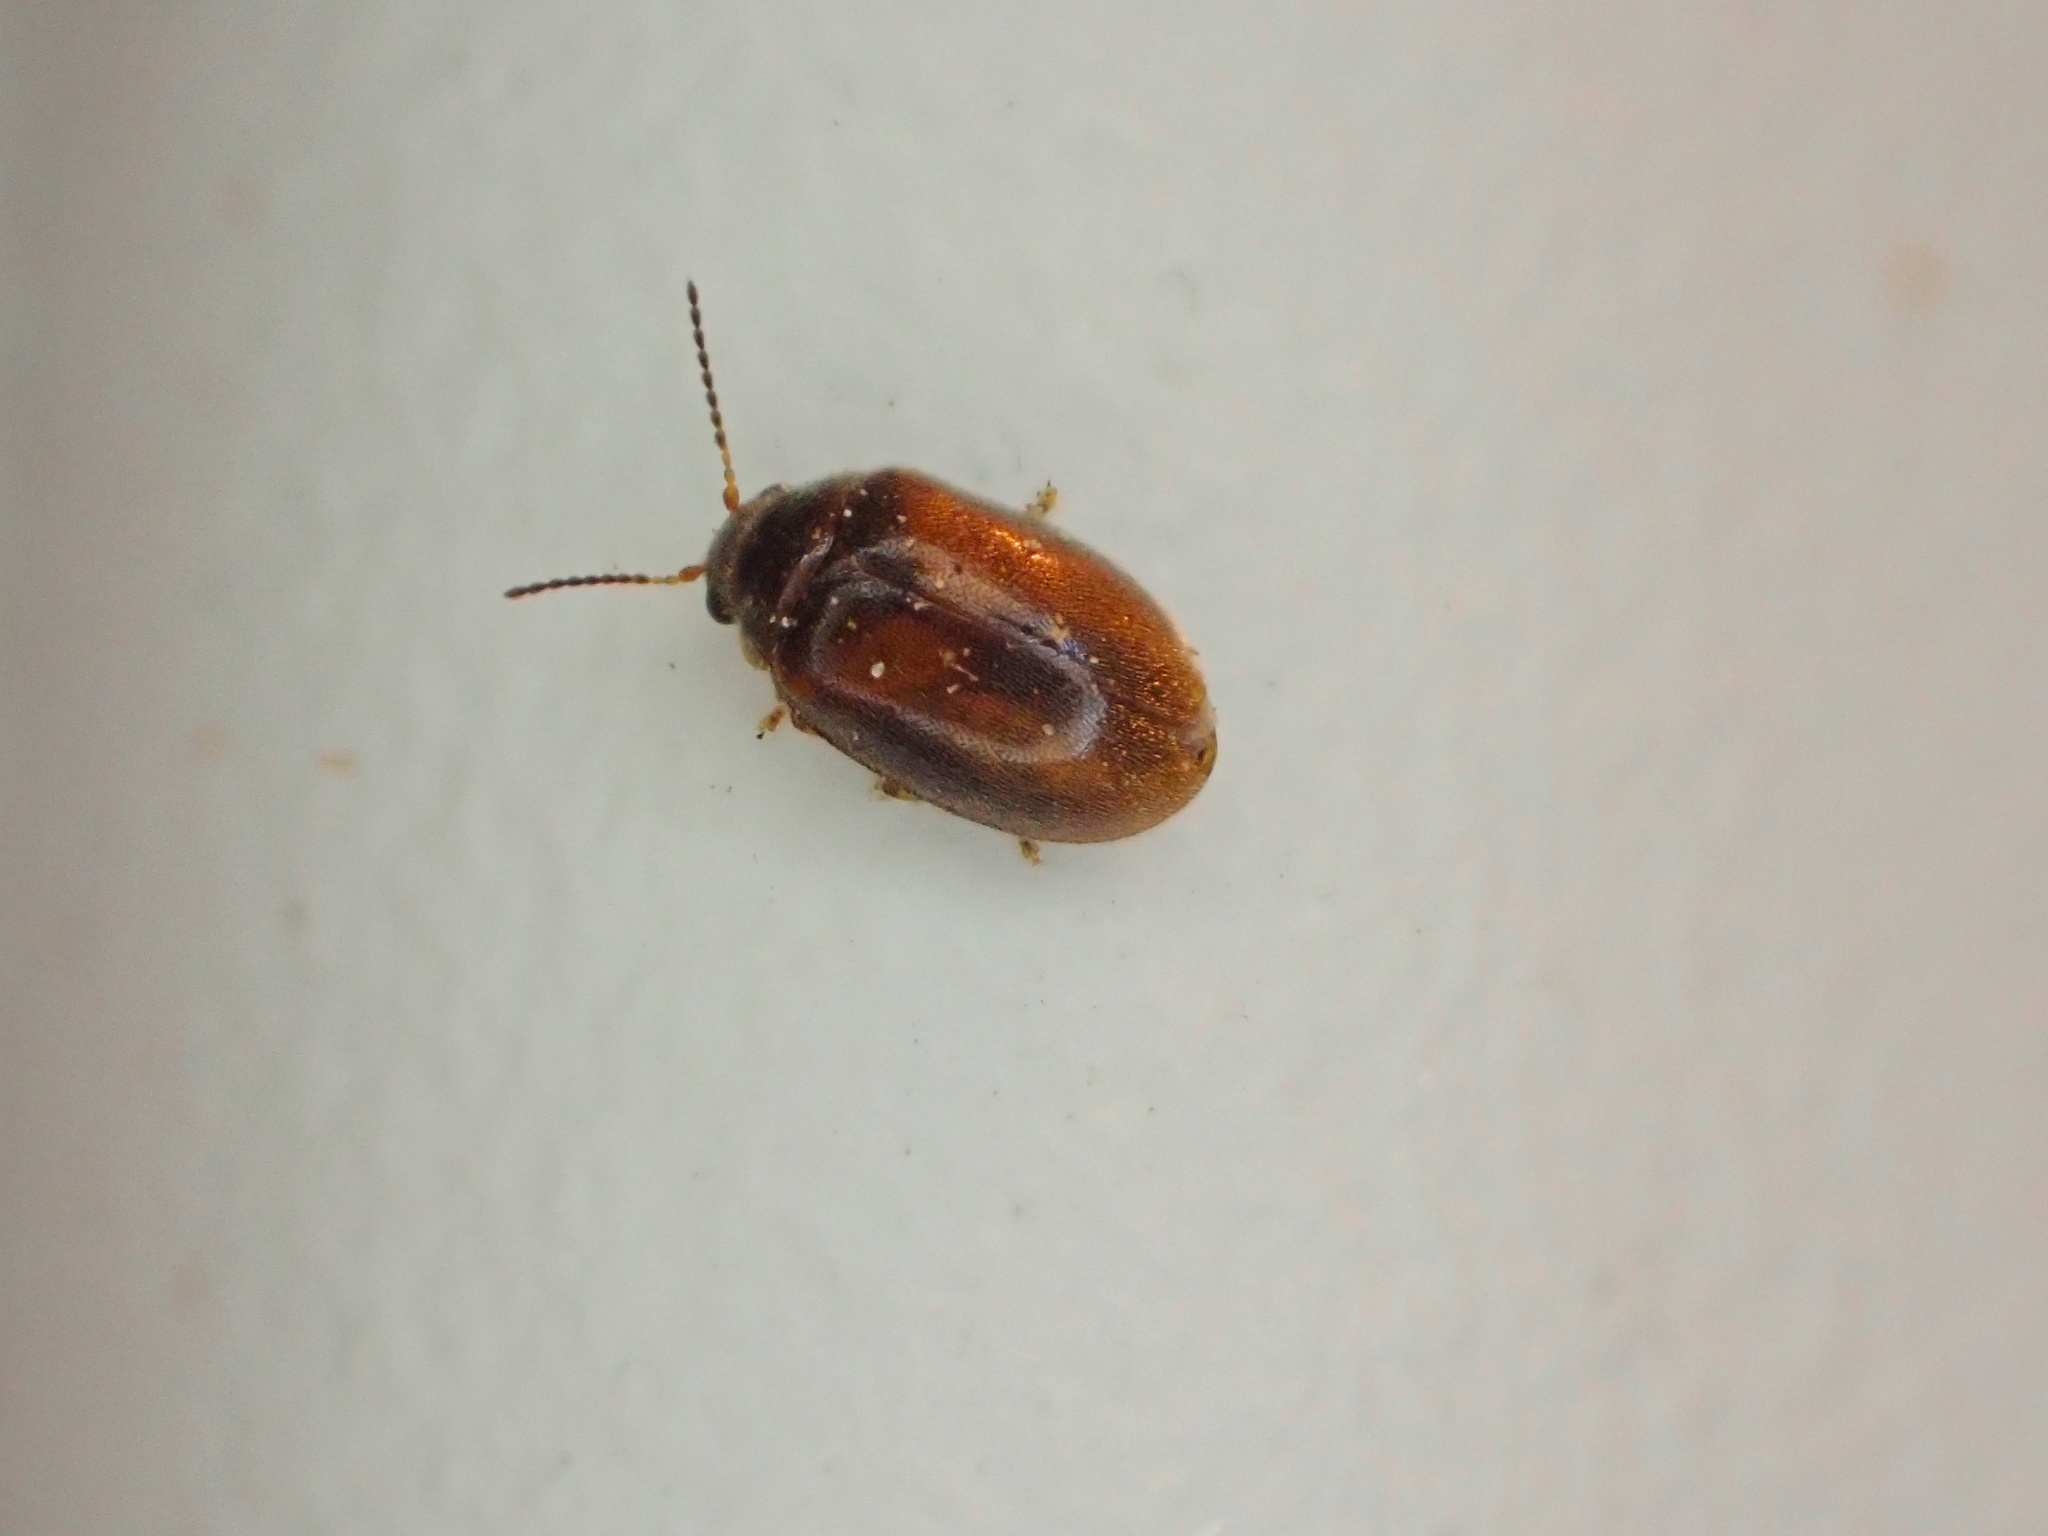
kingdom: Animalia
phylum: Arthropoda
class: Insecta
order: Coleoptera
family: Scirtidae
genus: Contacyphon
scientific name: Contacyphon
